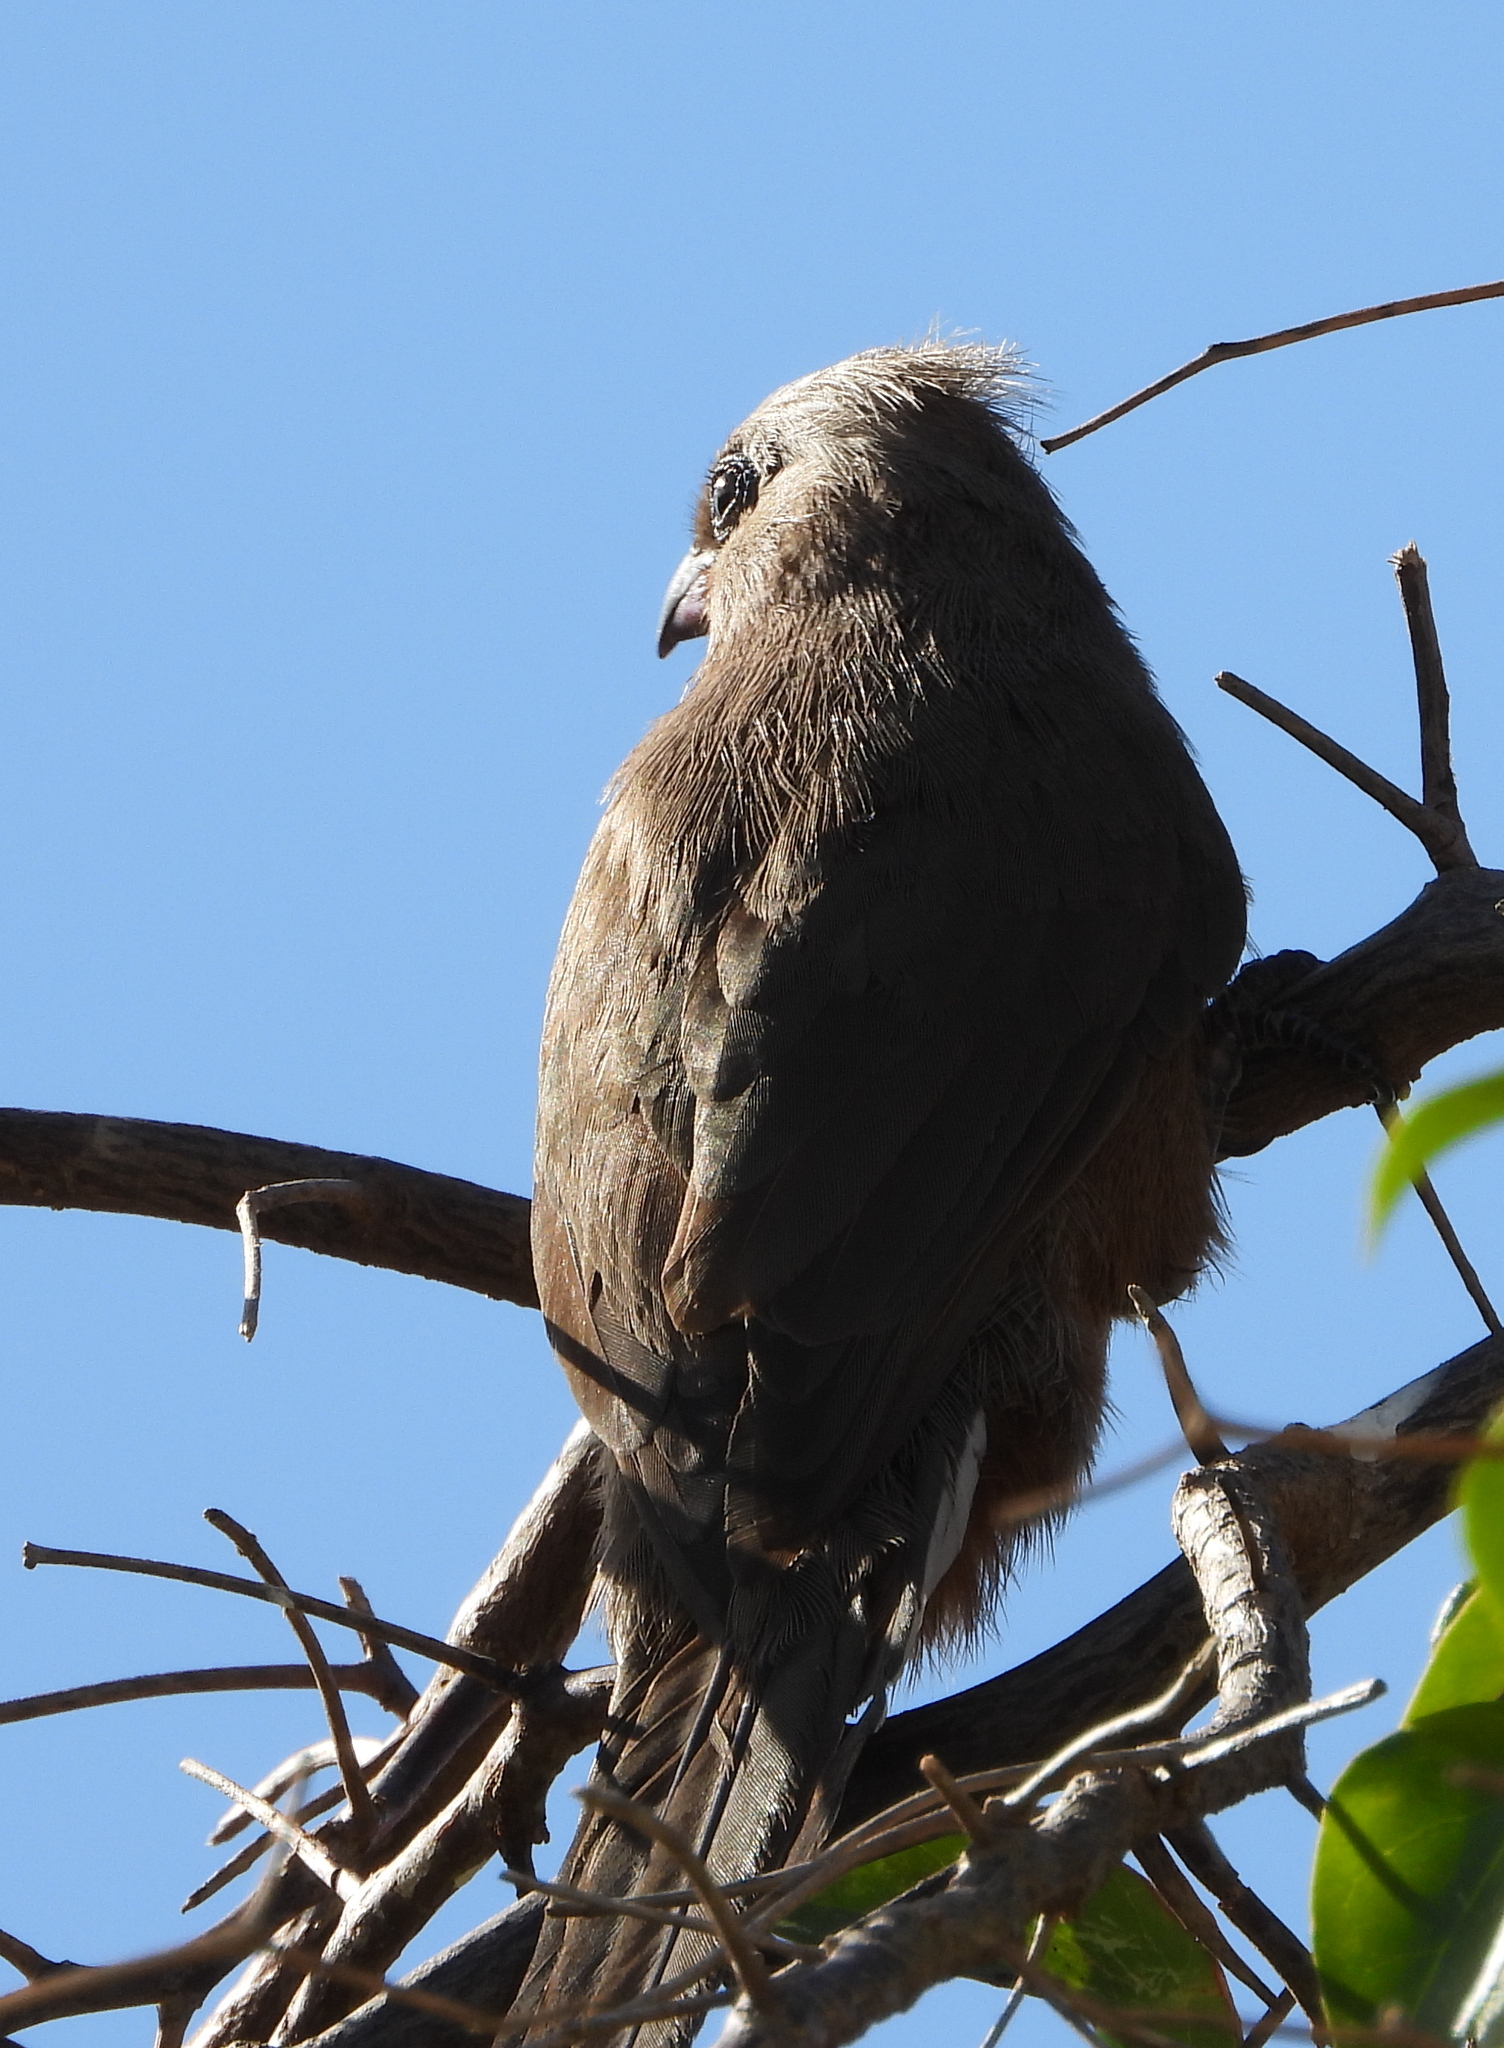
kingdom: Animalia
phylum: Chordata
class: Aves
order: Coliiformes
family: Coliidae
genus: Colius
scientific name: Colius striatus
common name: Speckled mousebird
